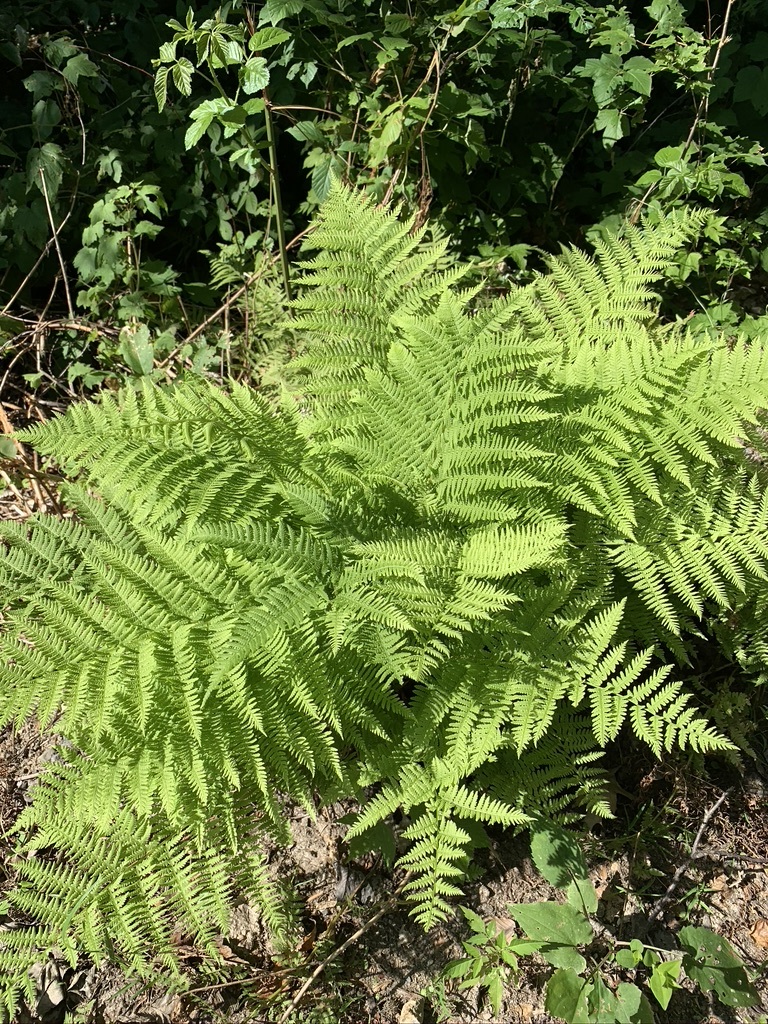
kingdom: Plantae
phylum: Tracheophyta
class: Polypodiopsida
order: Polypodiales
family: Athyriaceae
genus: Athyrium
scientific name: Athyrium angustum
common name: Northern lady fern
